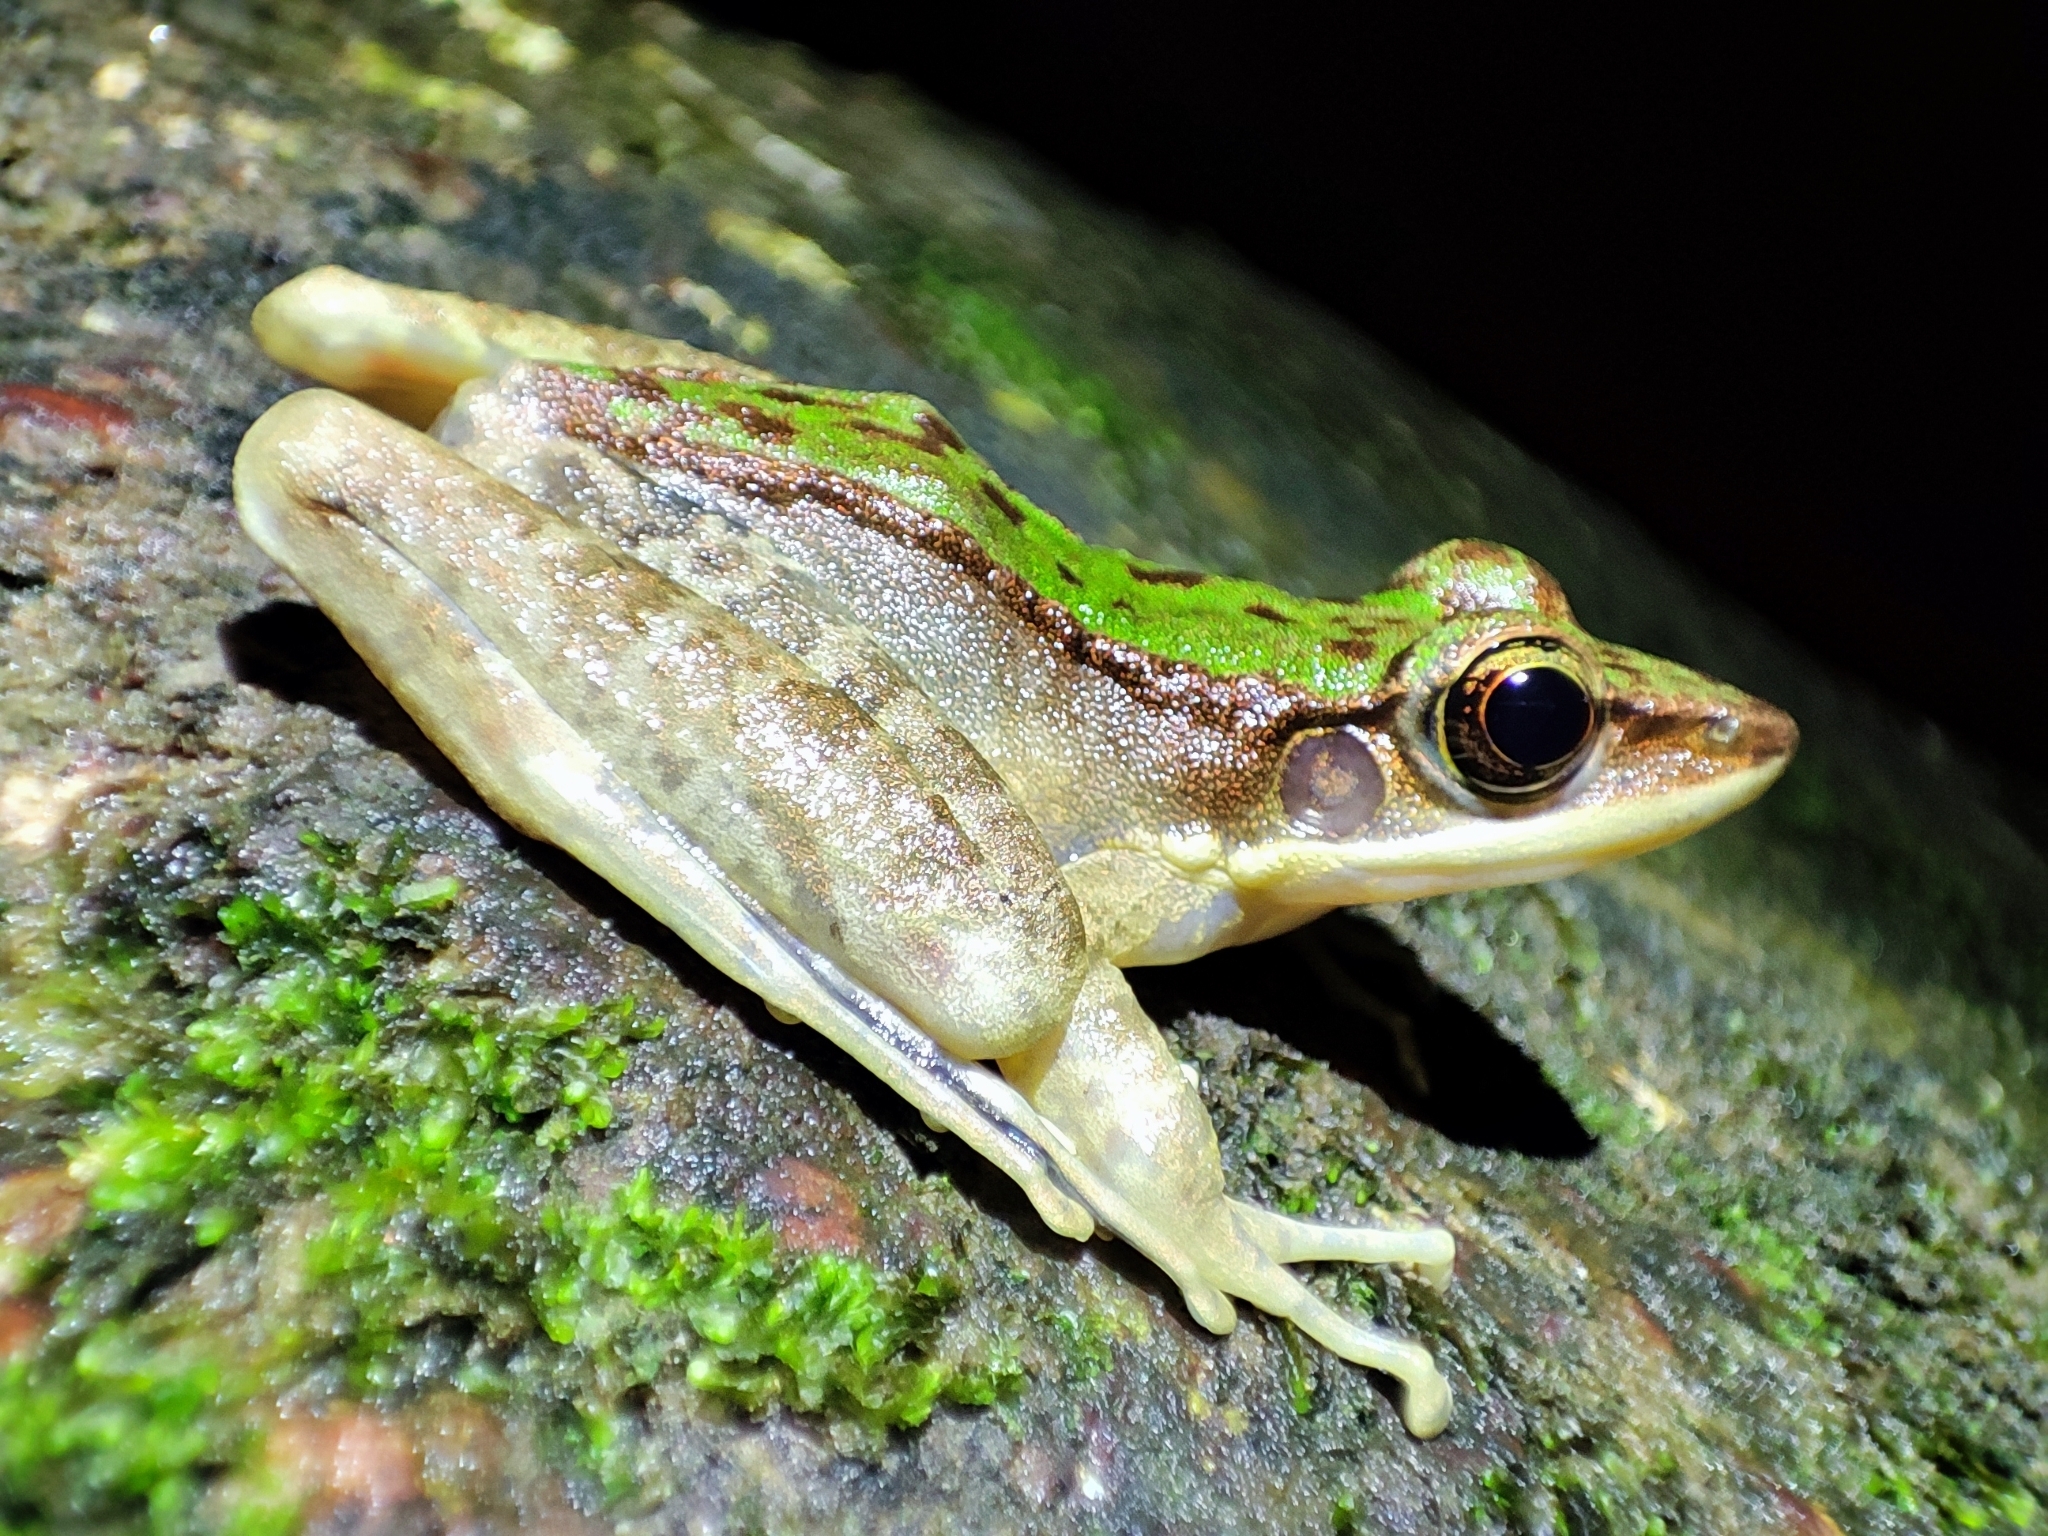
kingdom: Animalia
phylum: Chordata
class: Amphibia
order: Anura
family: Ranidae
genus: Odorrana
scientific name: Odorrana chloronota
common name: Chloronate huia frog
